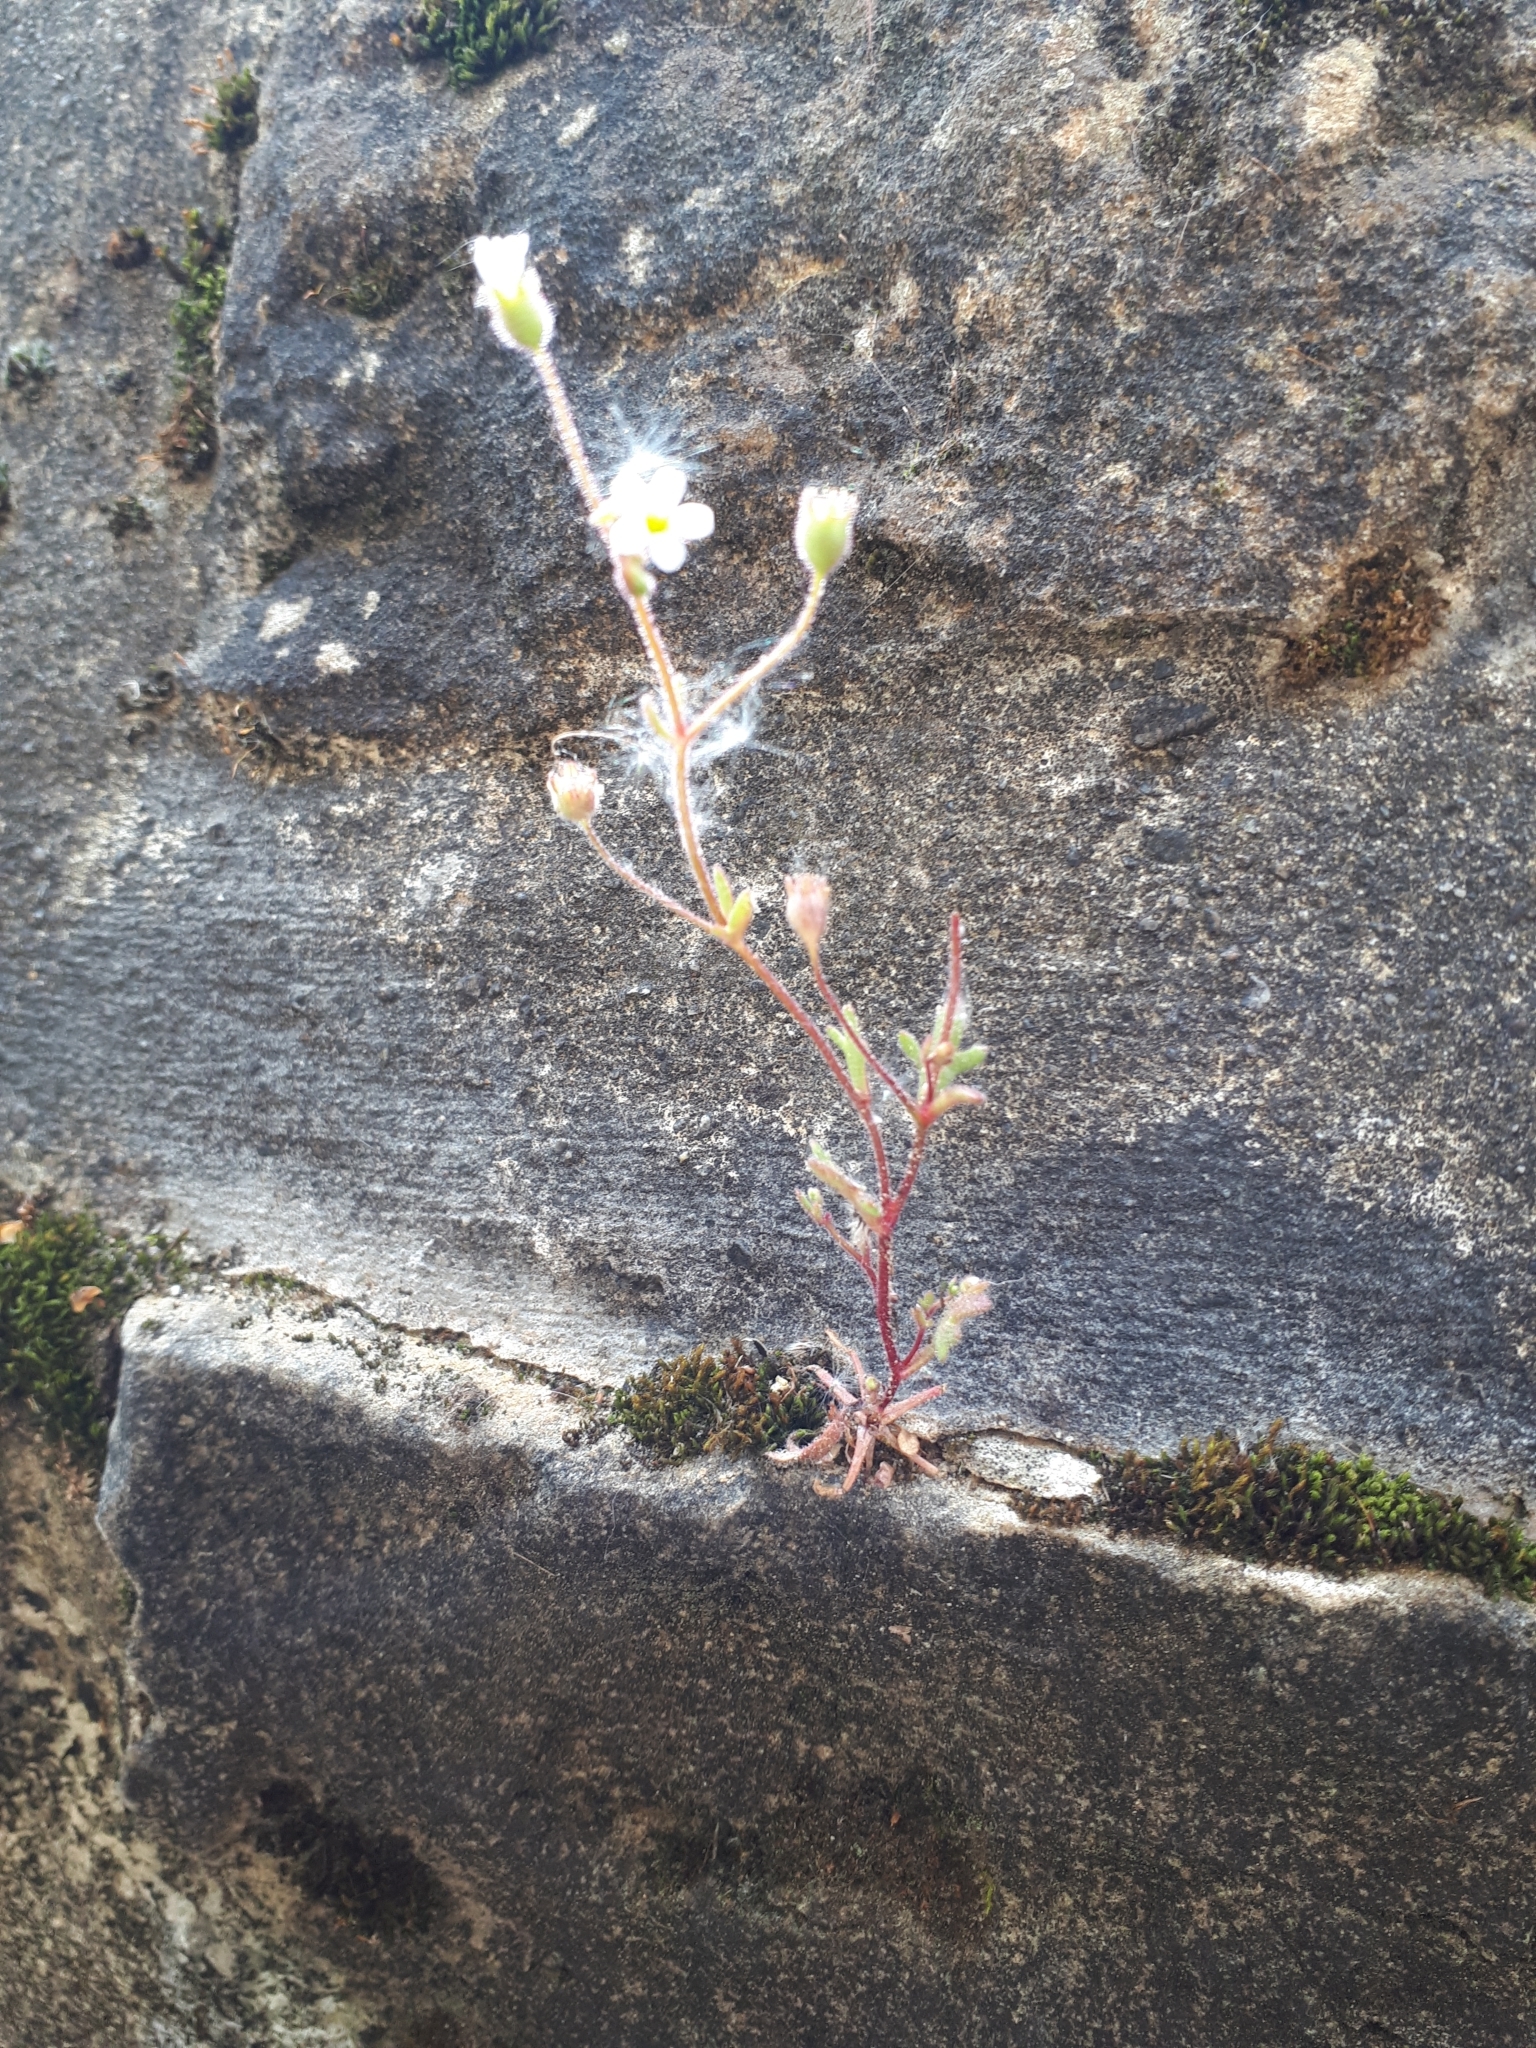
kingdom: Plantae
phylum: Tracheophyta
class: Magnoliopsida
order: Saxifragales
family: Saxifragaceae
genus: Saxifraga
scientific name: Saxifraga tridactylites
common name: Rue-leaved saxifrage
